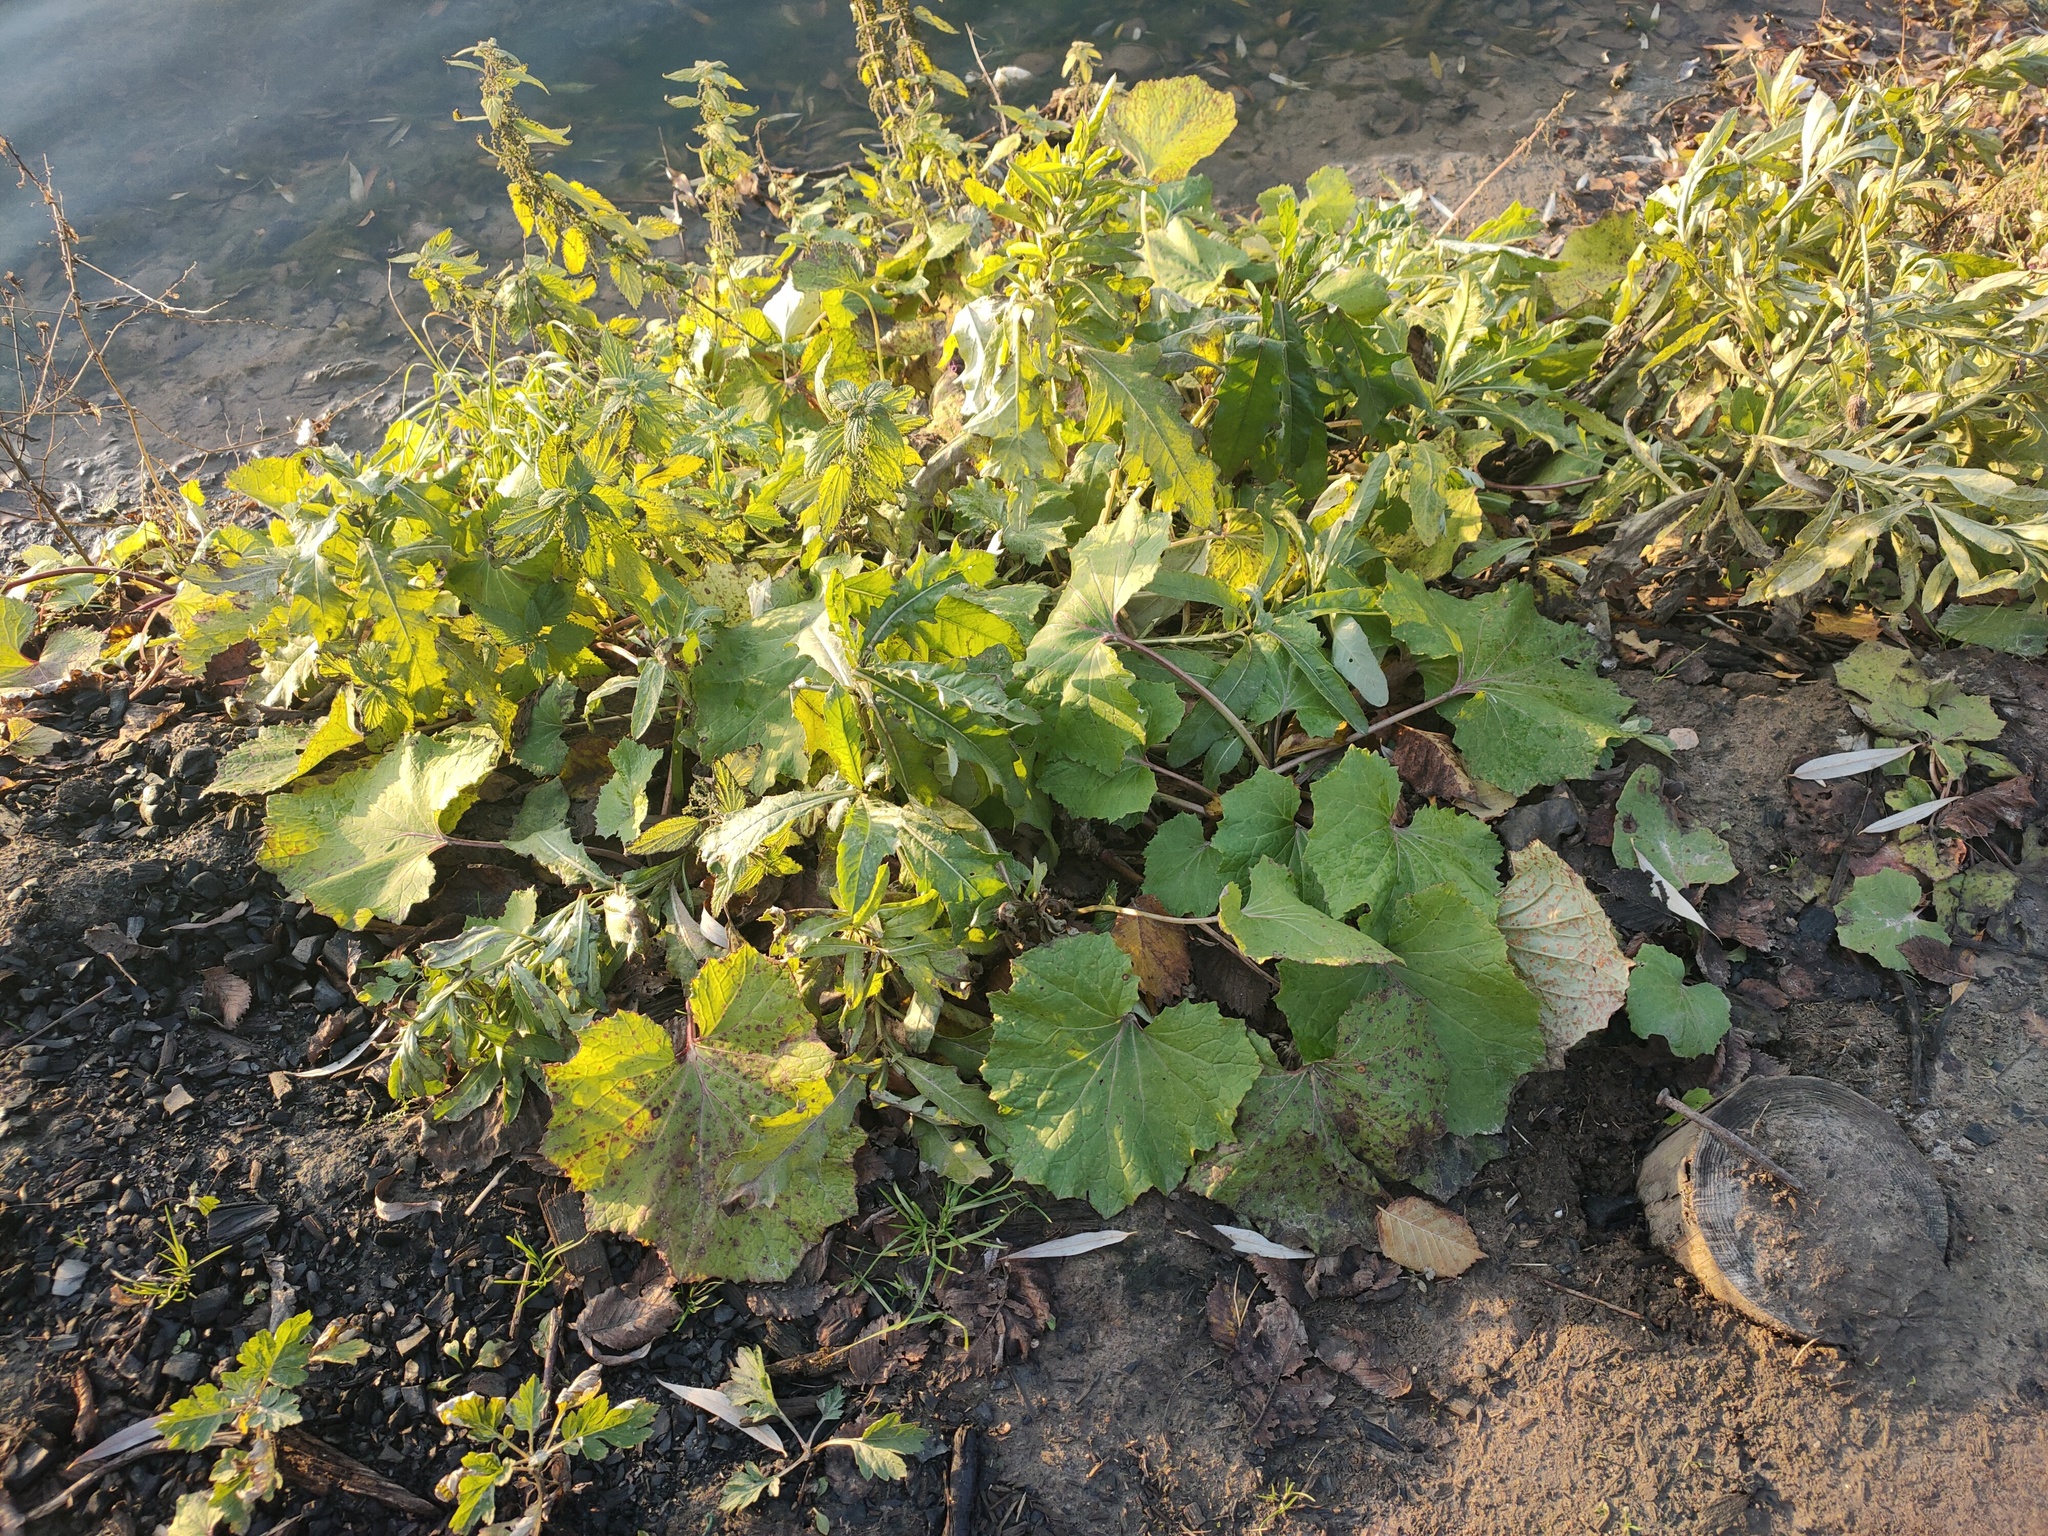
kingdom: Plantae
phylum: Tracheophyta
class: Magnoliopsida
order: Asterales
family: Asteraceae
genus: Tussilago
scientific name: Tussilago farfara
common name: Coltsfoot
